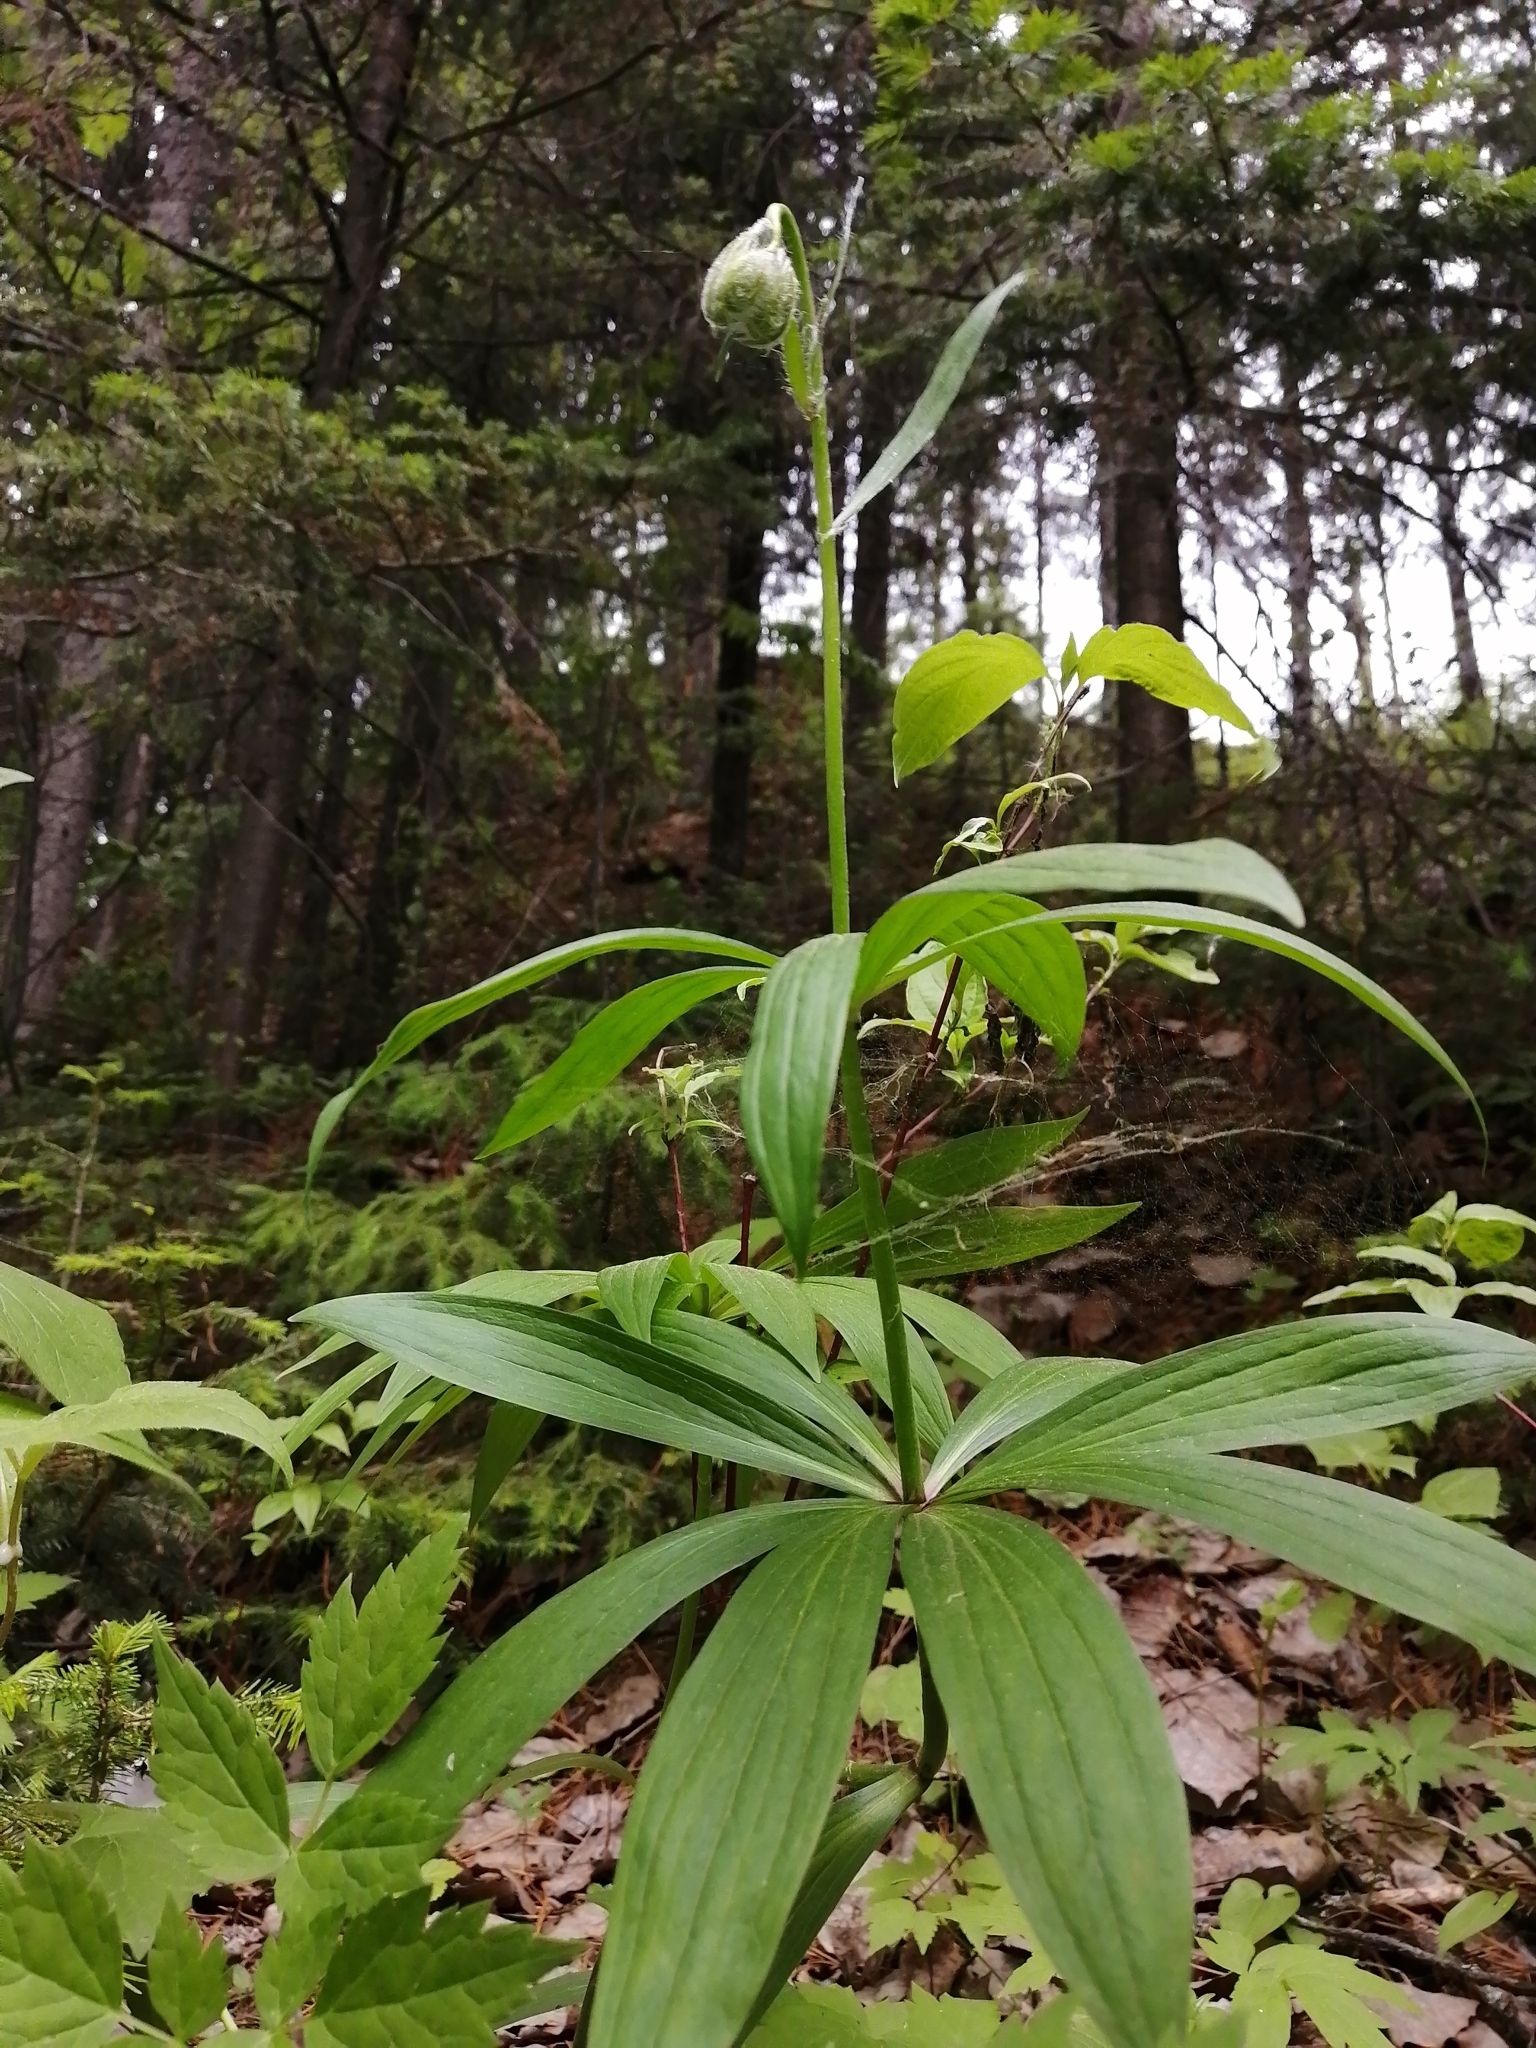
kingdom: Plantae
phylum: Tracheophyta
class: Liliopsida
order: Liliales
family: Liliaceae
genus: Lilium
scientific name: Lilium martagon
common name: Martagon lily
